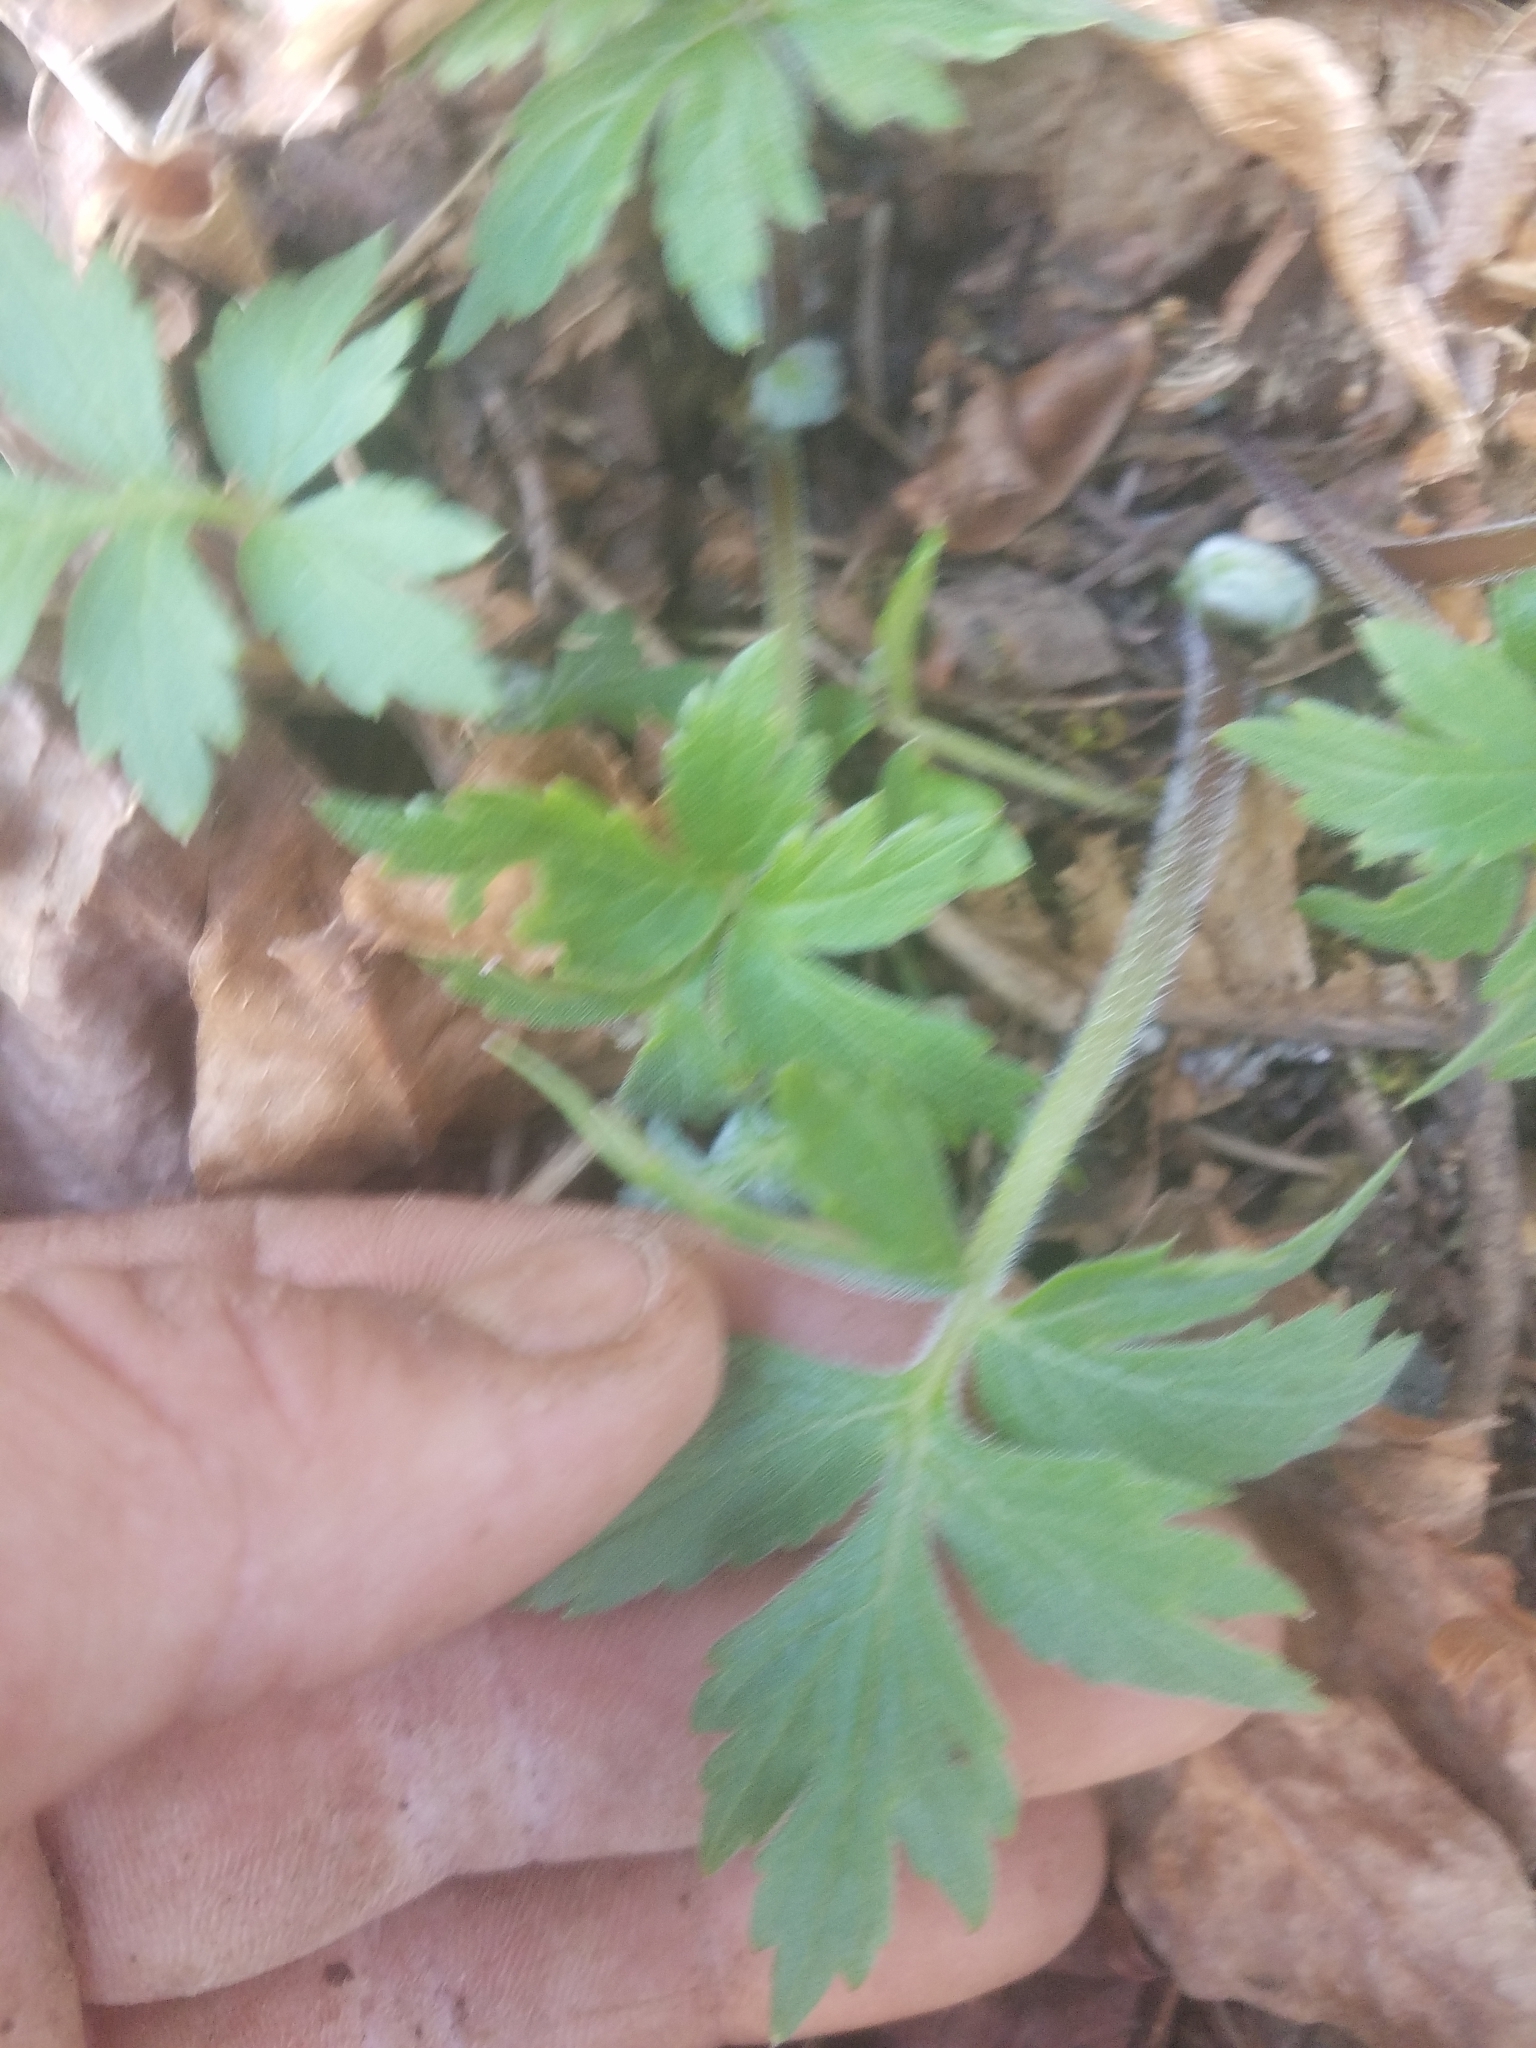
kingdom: Plantae
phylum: Tracheophyta
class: Magnoliopsida
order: Boraginales
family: Hydrophyllaceae
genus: Hydrophyllum
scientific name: Hydrophyllum tenuipes
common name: Pacific waterleaf
